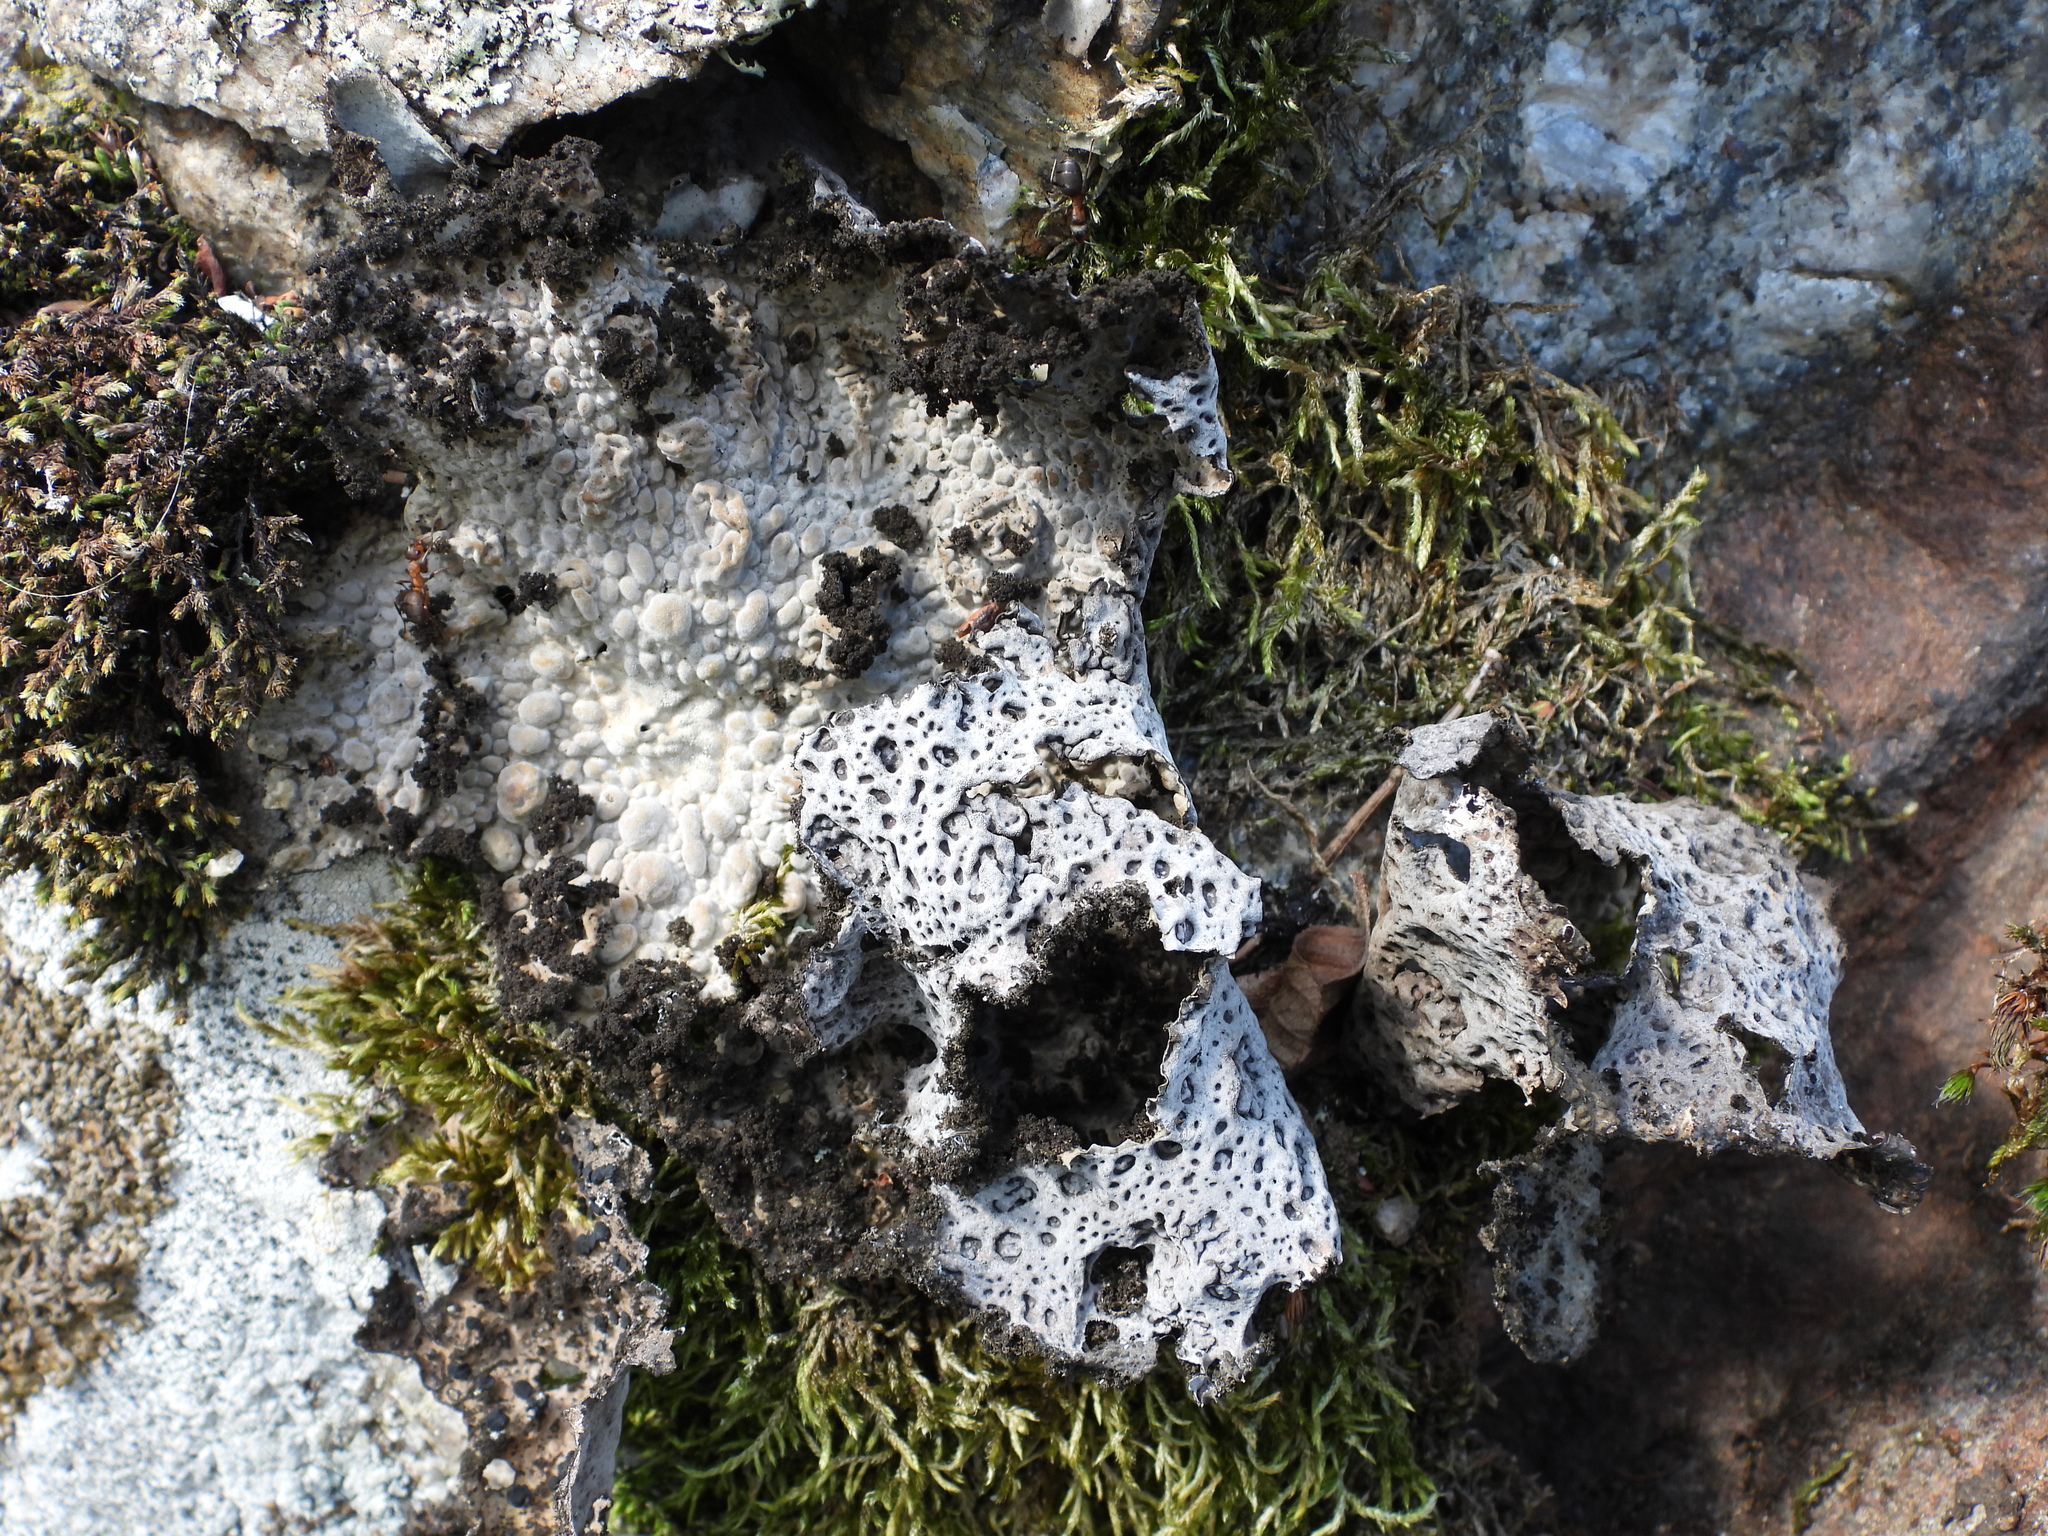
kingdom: Fungi
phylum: Ascomycota
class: Lecanoromycetes
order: Umbilicariales
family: Umbilicariaceae
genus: Lasallia
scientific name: Lasallia pustulata
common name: Blistered toadskin lichen
